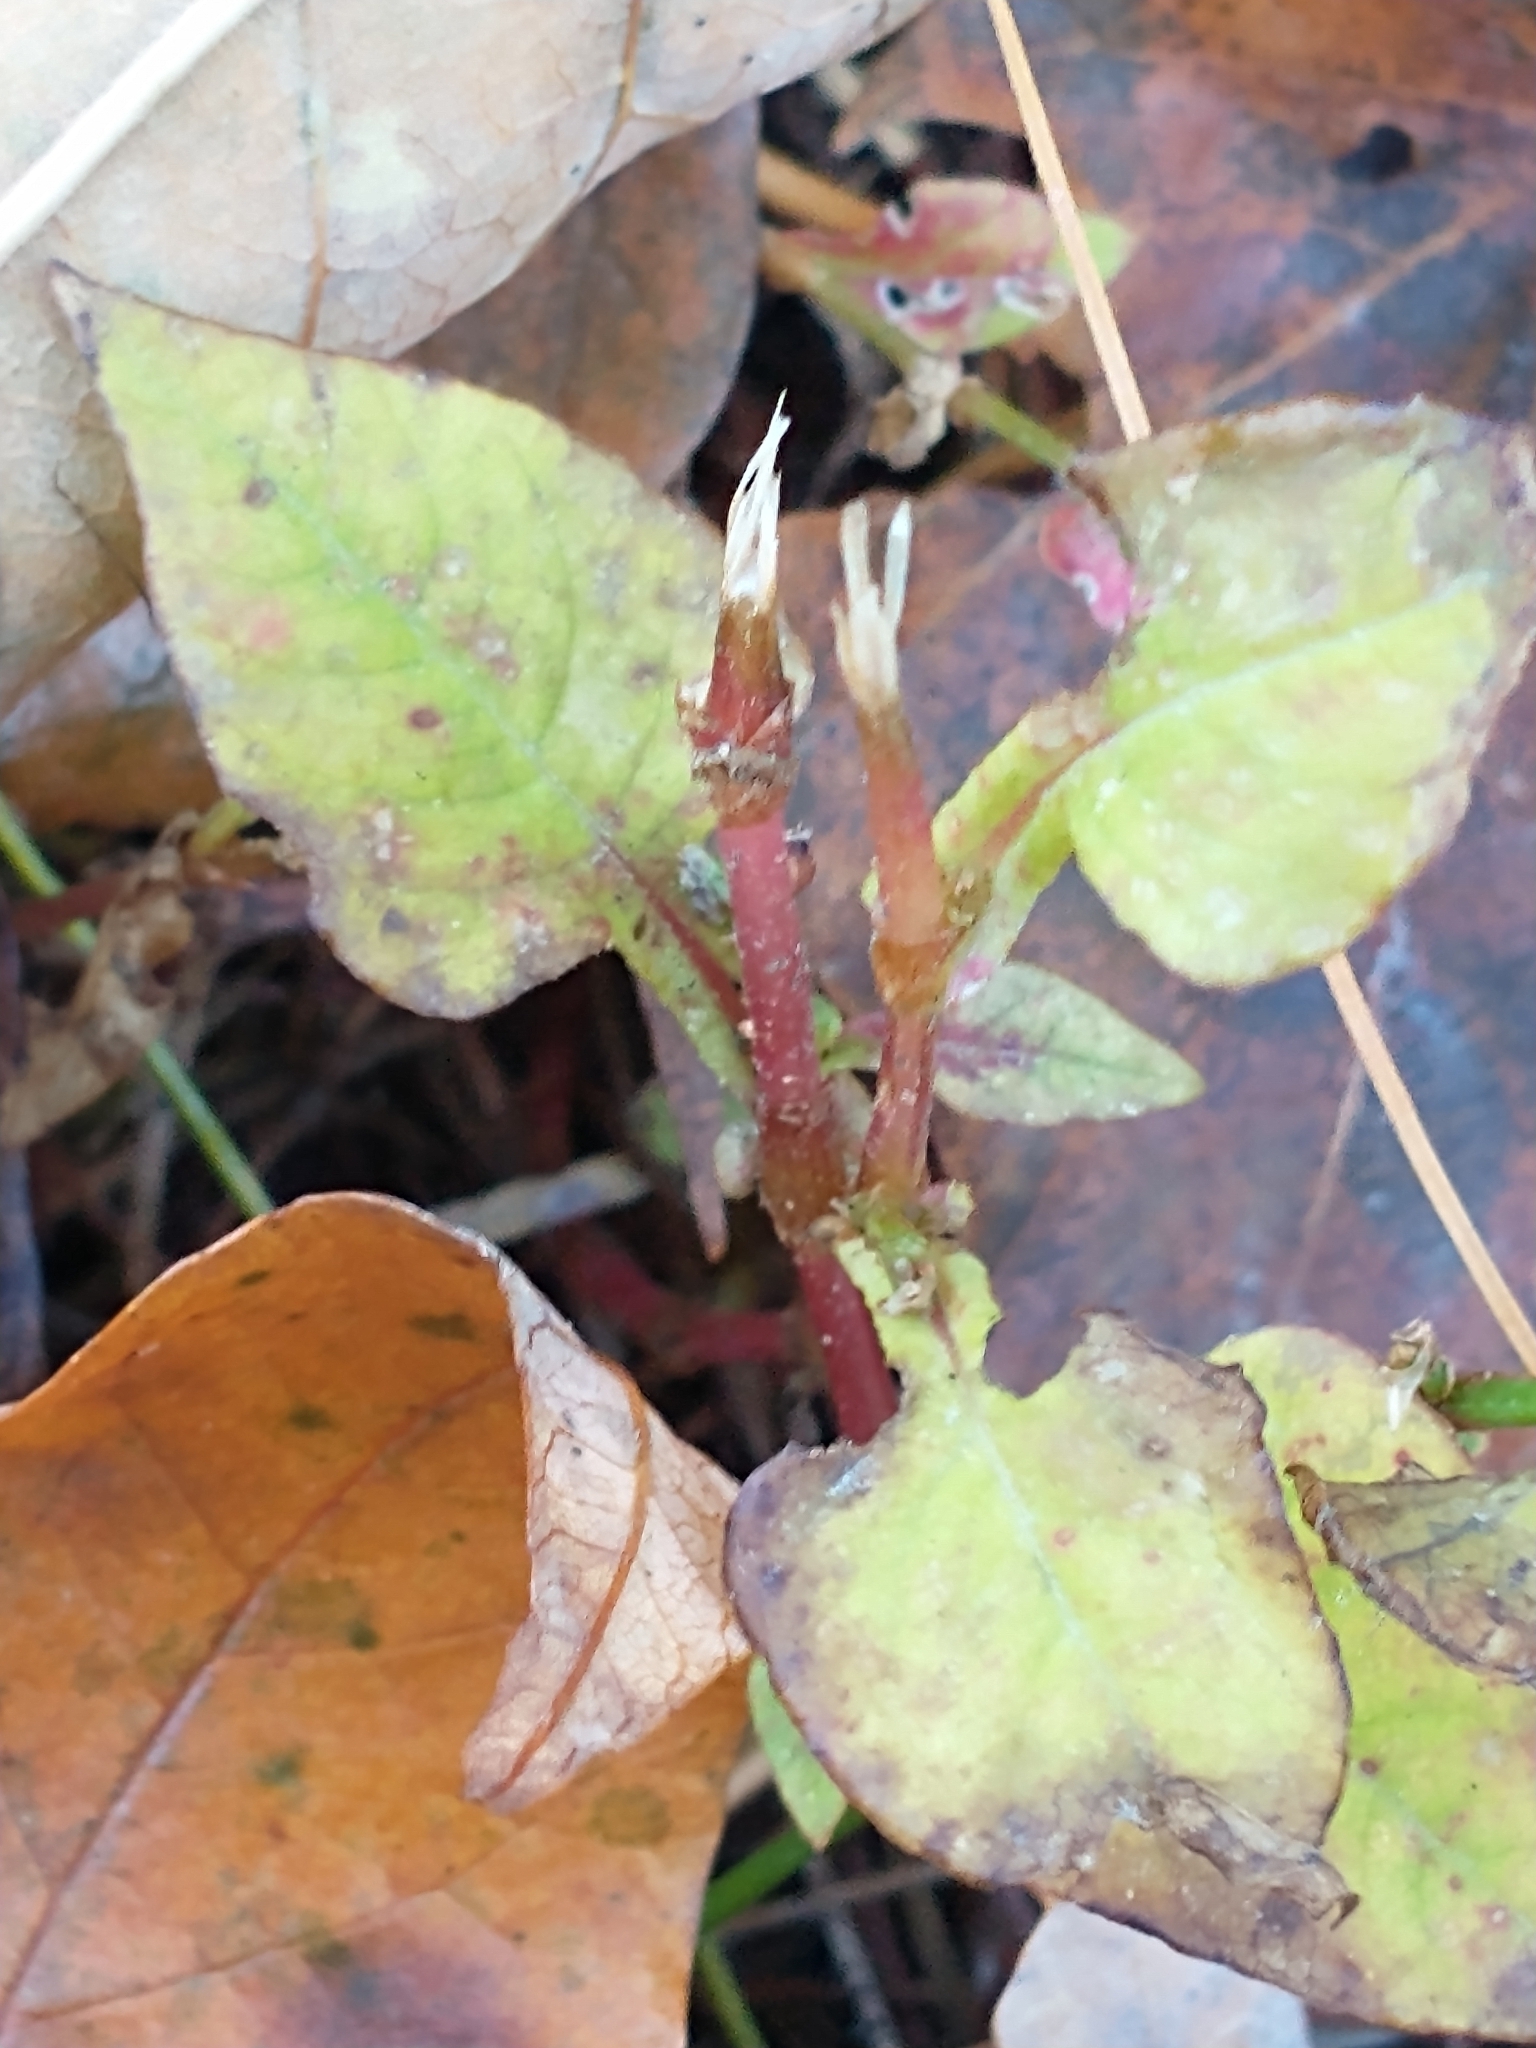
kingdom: Plantae
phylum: Tracheophyta
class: Magnoliopsida
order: Caryophyllales
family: Polygonaceae
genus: Persicaria
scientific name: Persicaria nepalensis
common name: Nepal persicaria
